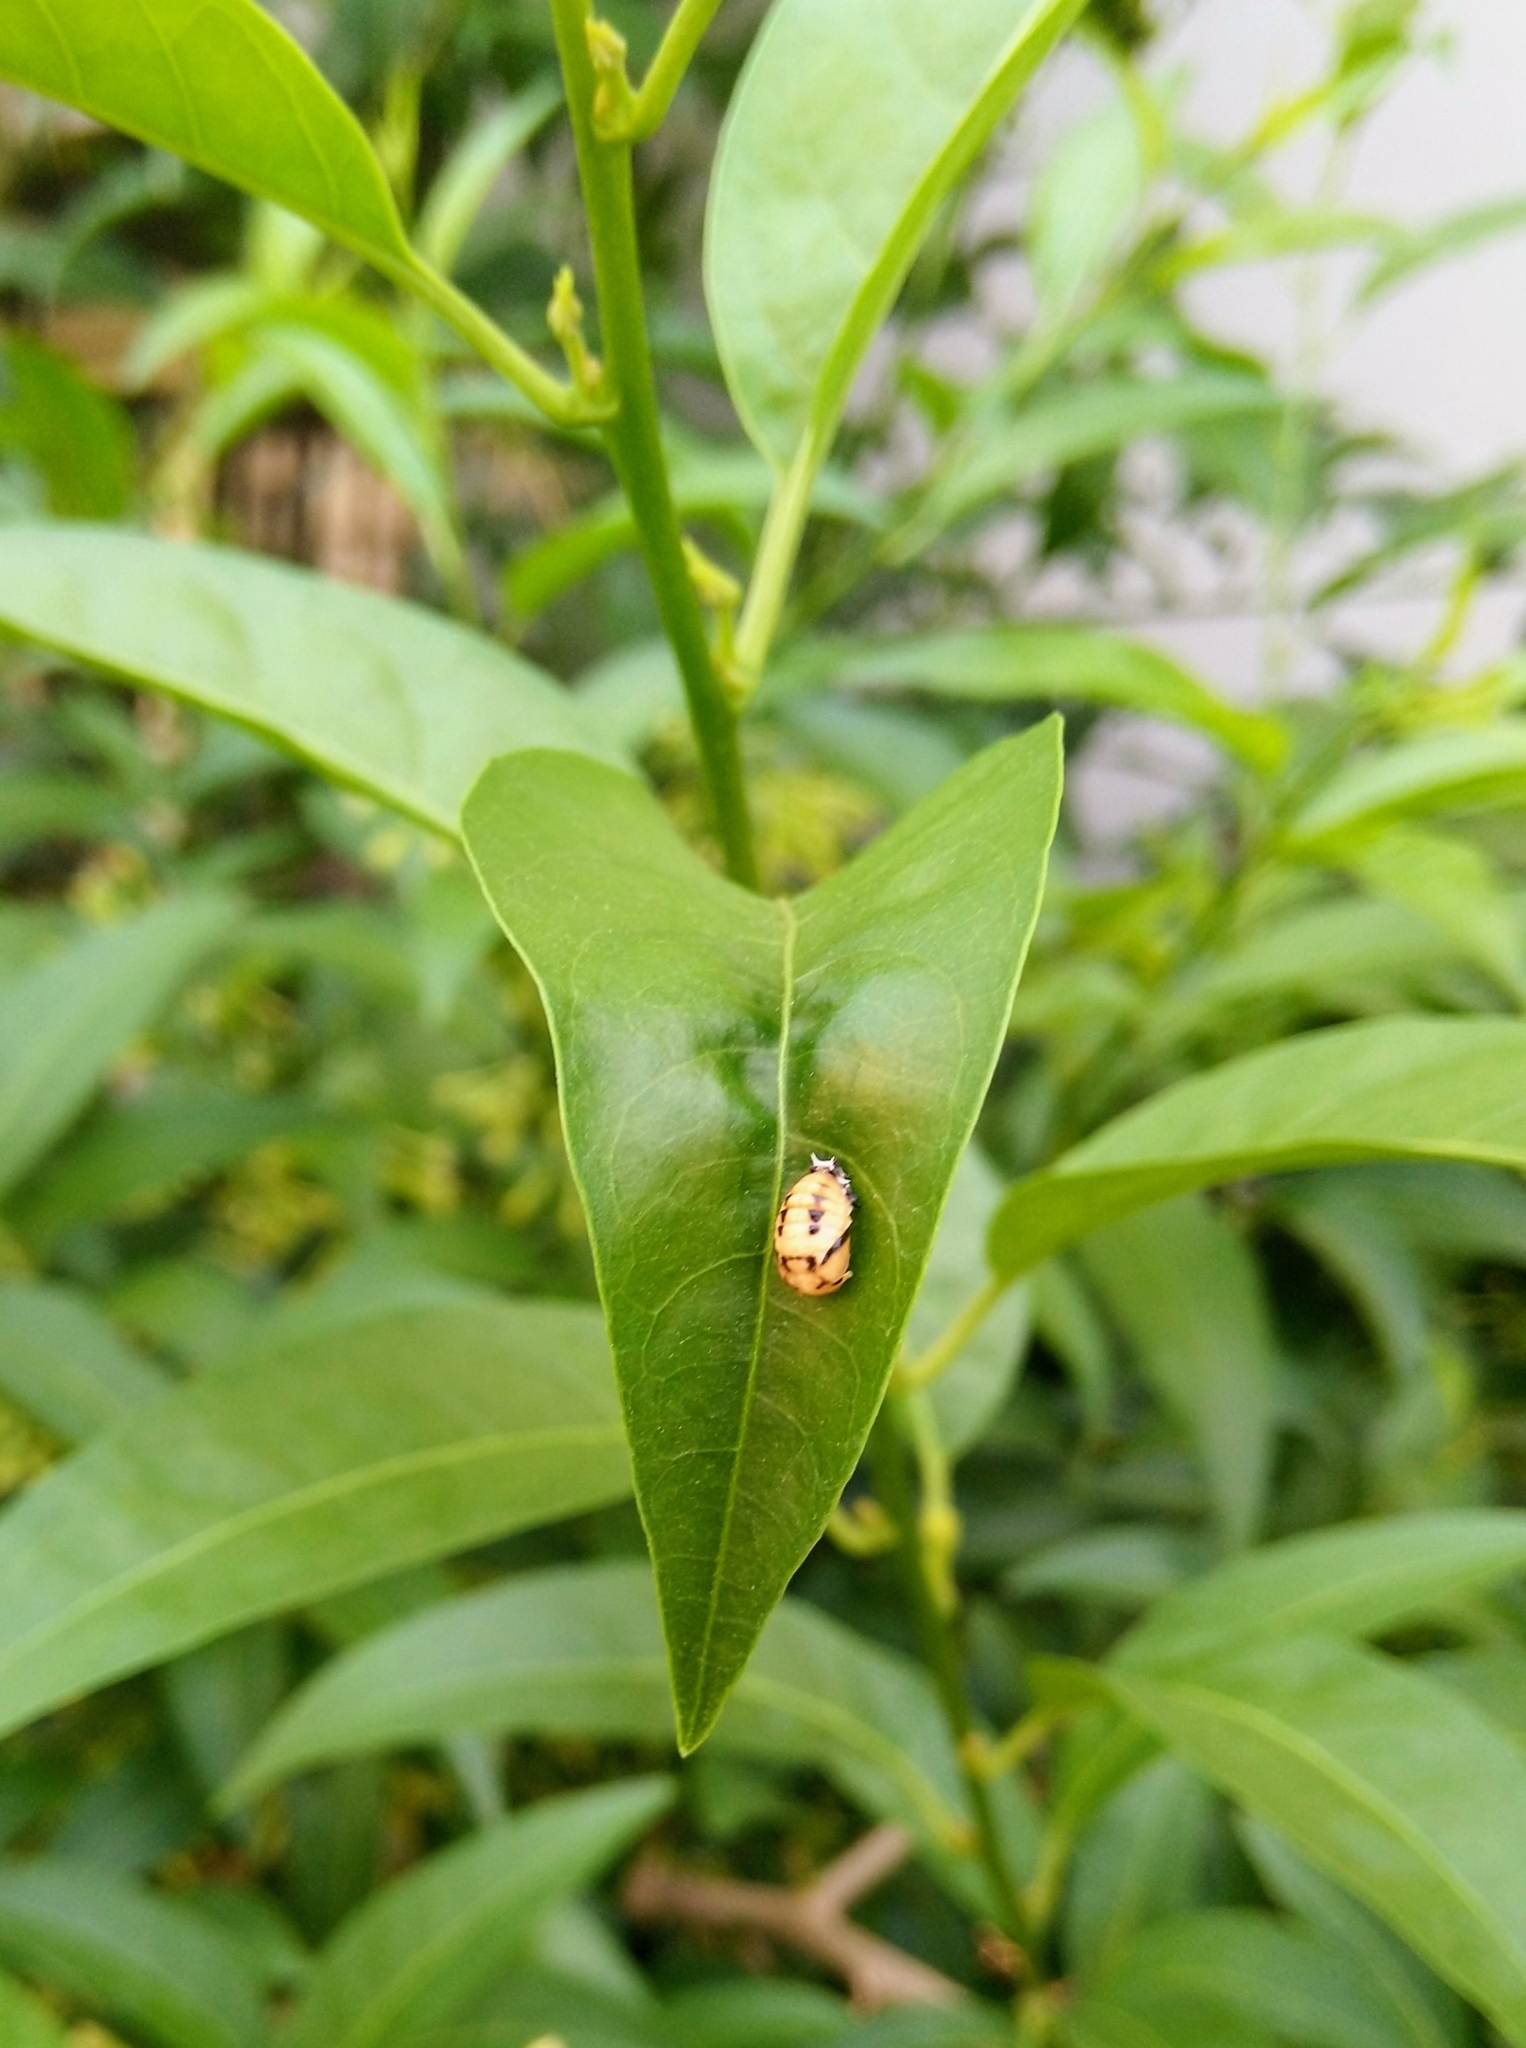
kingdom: Animalia
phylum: Arthropoda
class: Insecta
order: Coleoptera
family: Coccinellidae
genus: Cheilomenes
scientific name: Cheilomenes sexmaculata
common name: Ladybird beetle
